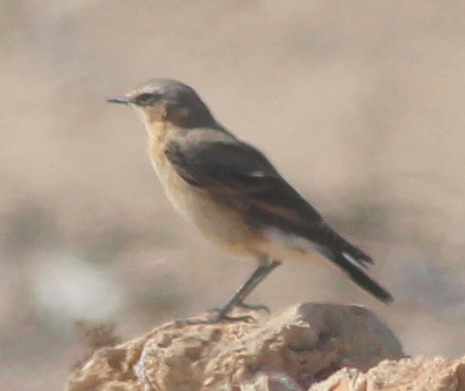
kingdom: Animalia
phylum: Chordata
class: Aves
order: Passeriformes
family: Muscicapidae
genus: Oenanthe
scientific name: Oenanthe oenanthe
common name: Northern wheatear
